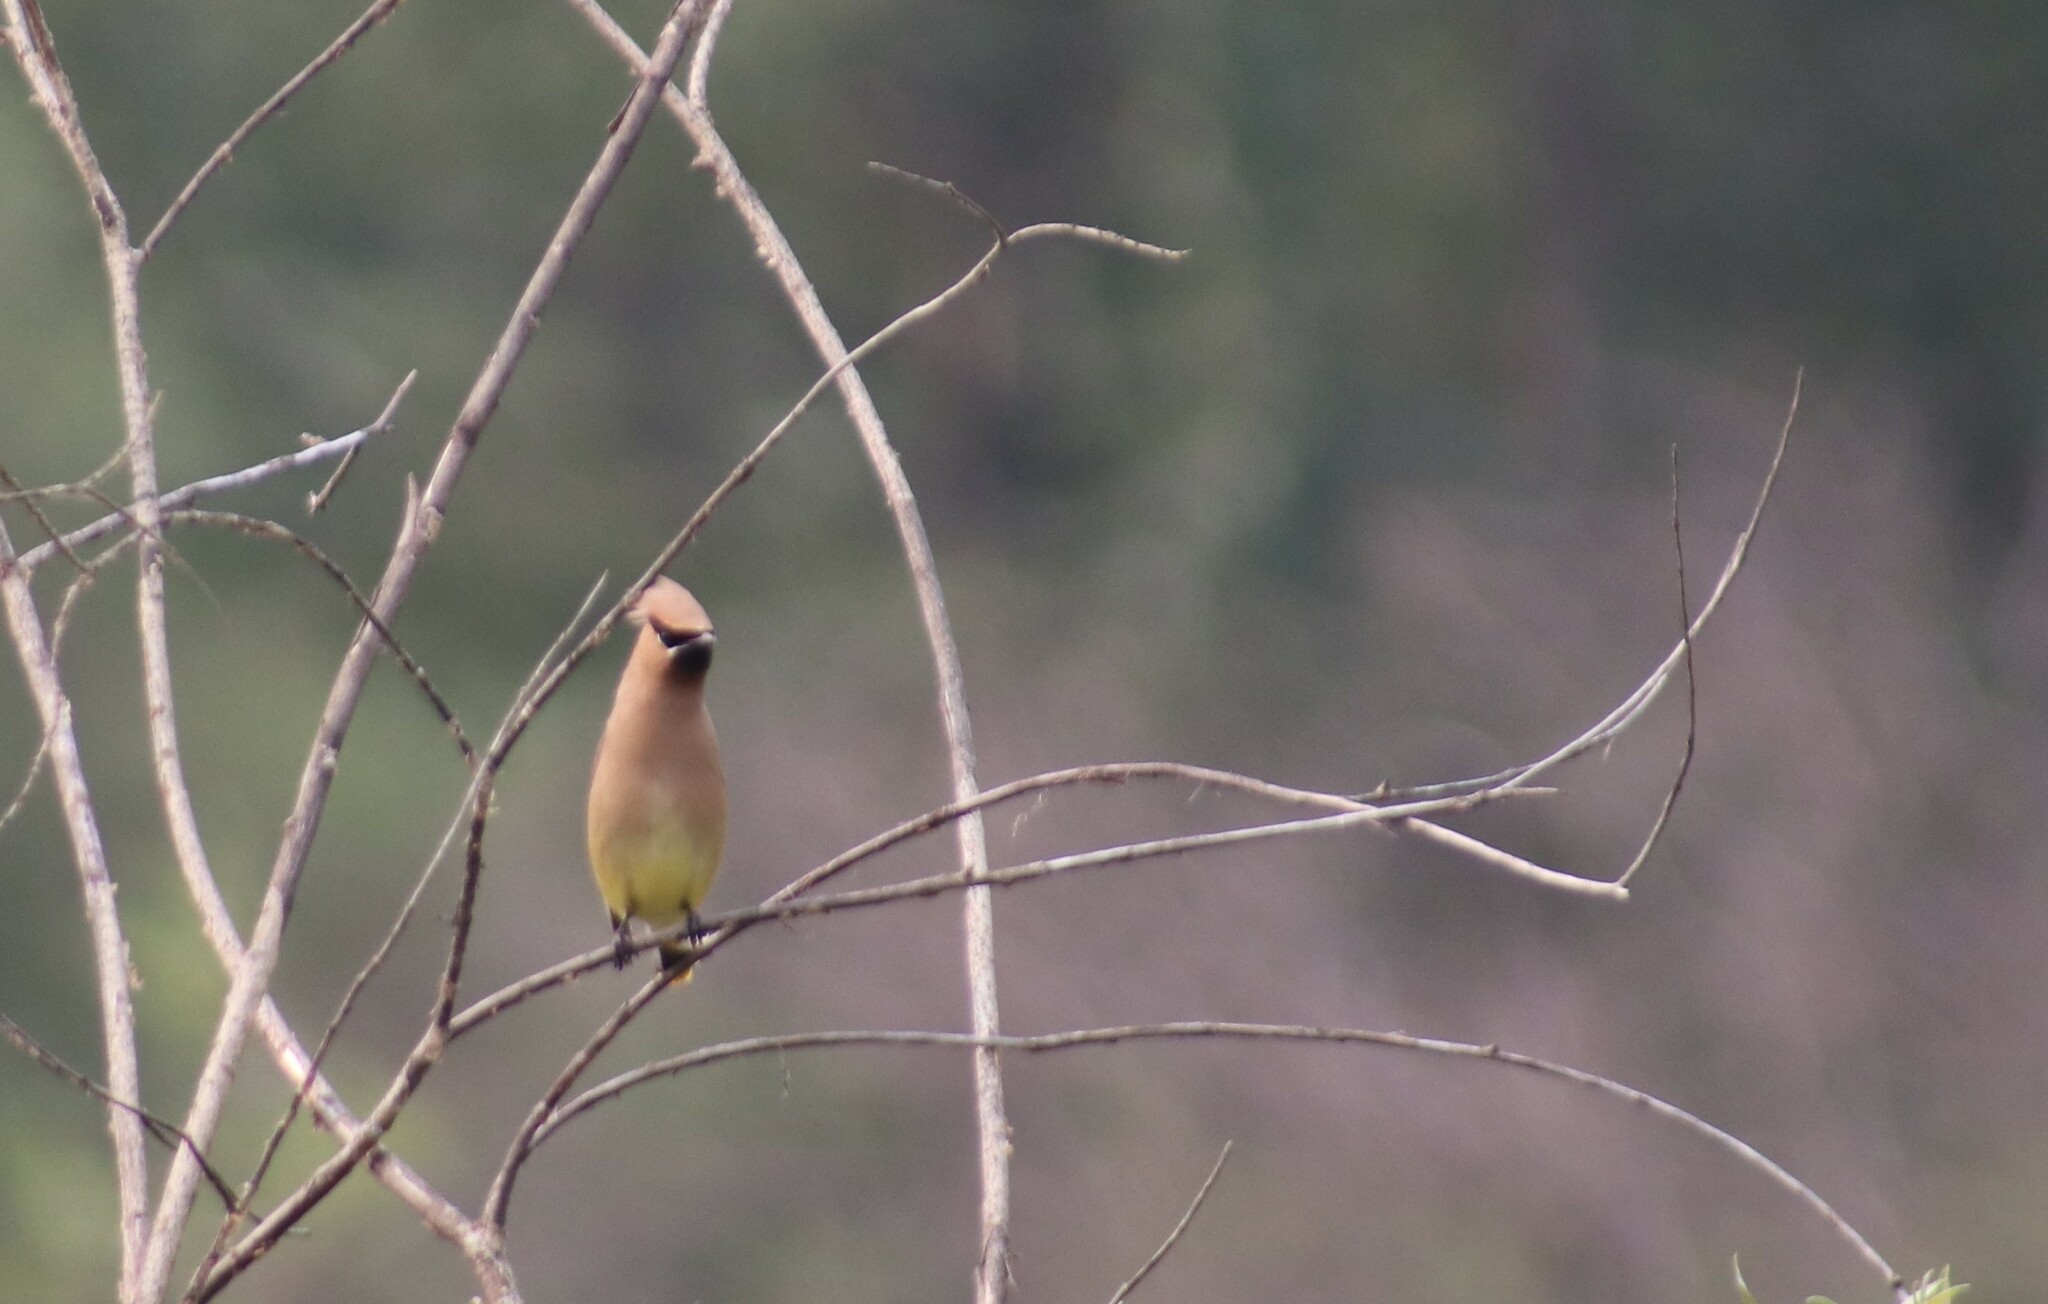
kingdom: Animalia
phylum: Chordata
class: Aves
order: Passeriformes
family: Bombycillidae
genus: Bombycilla
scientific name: Bombycilla cedrorum
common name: Cedar waxwing
